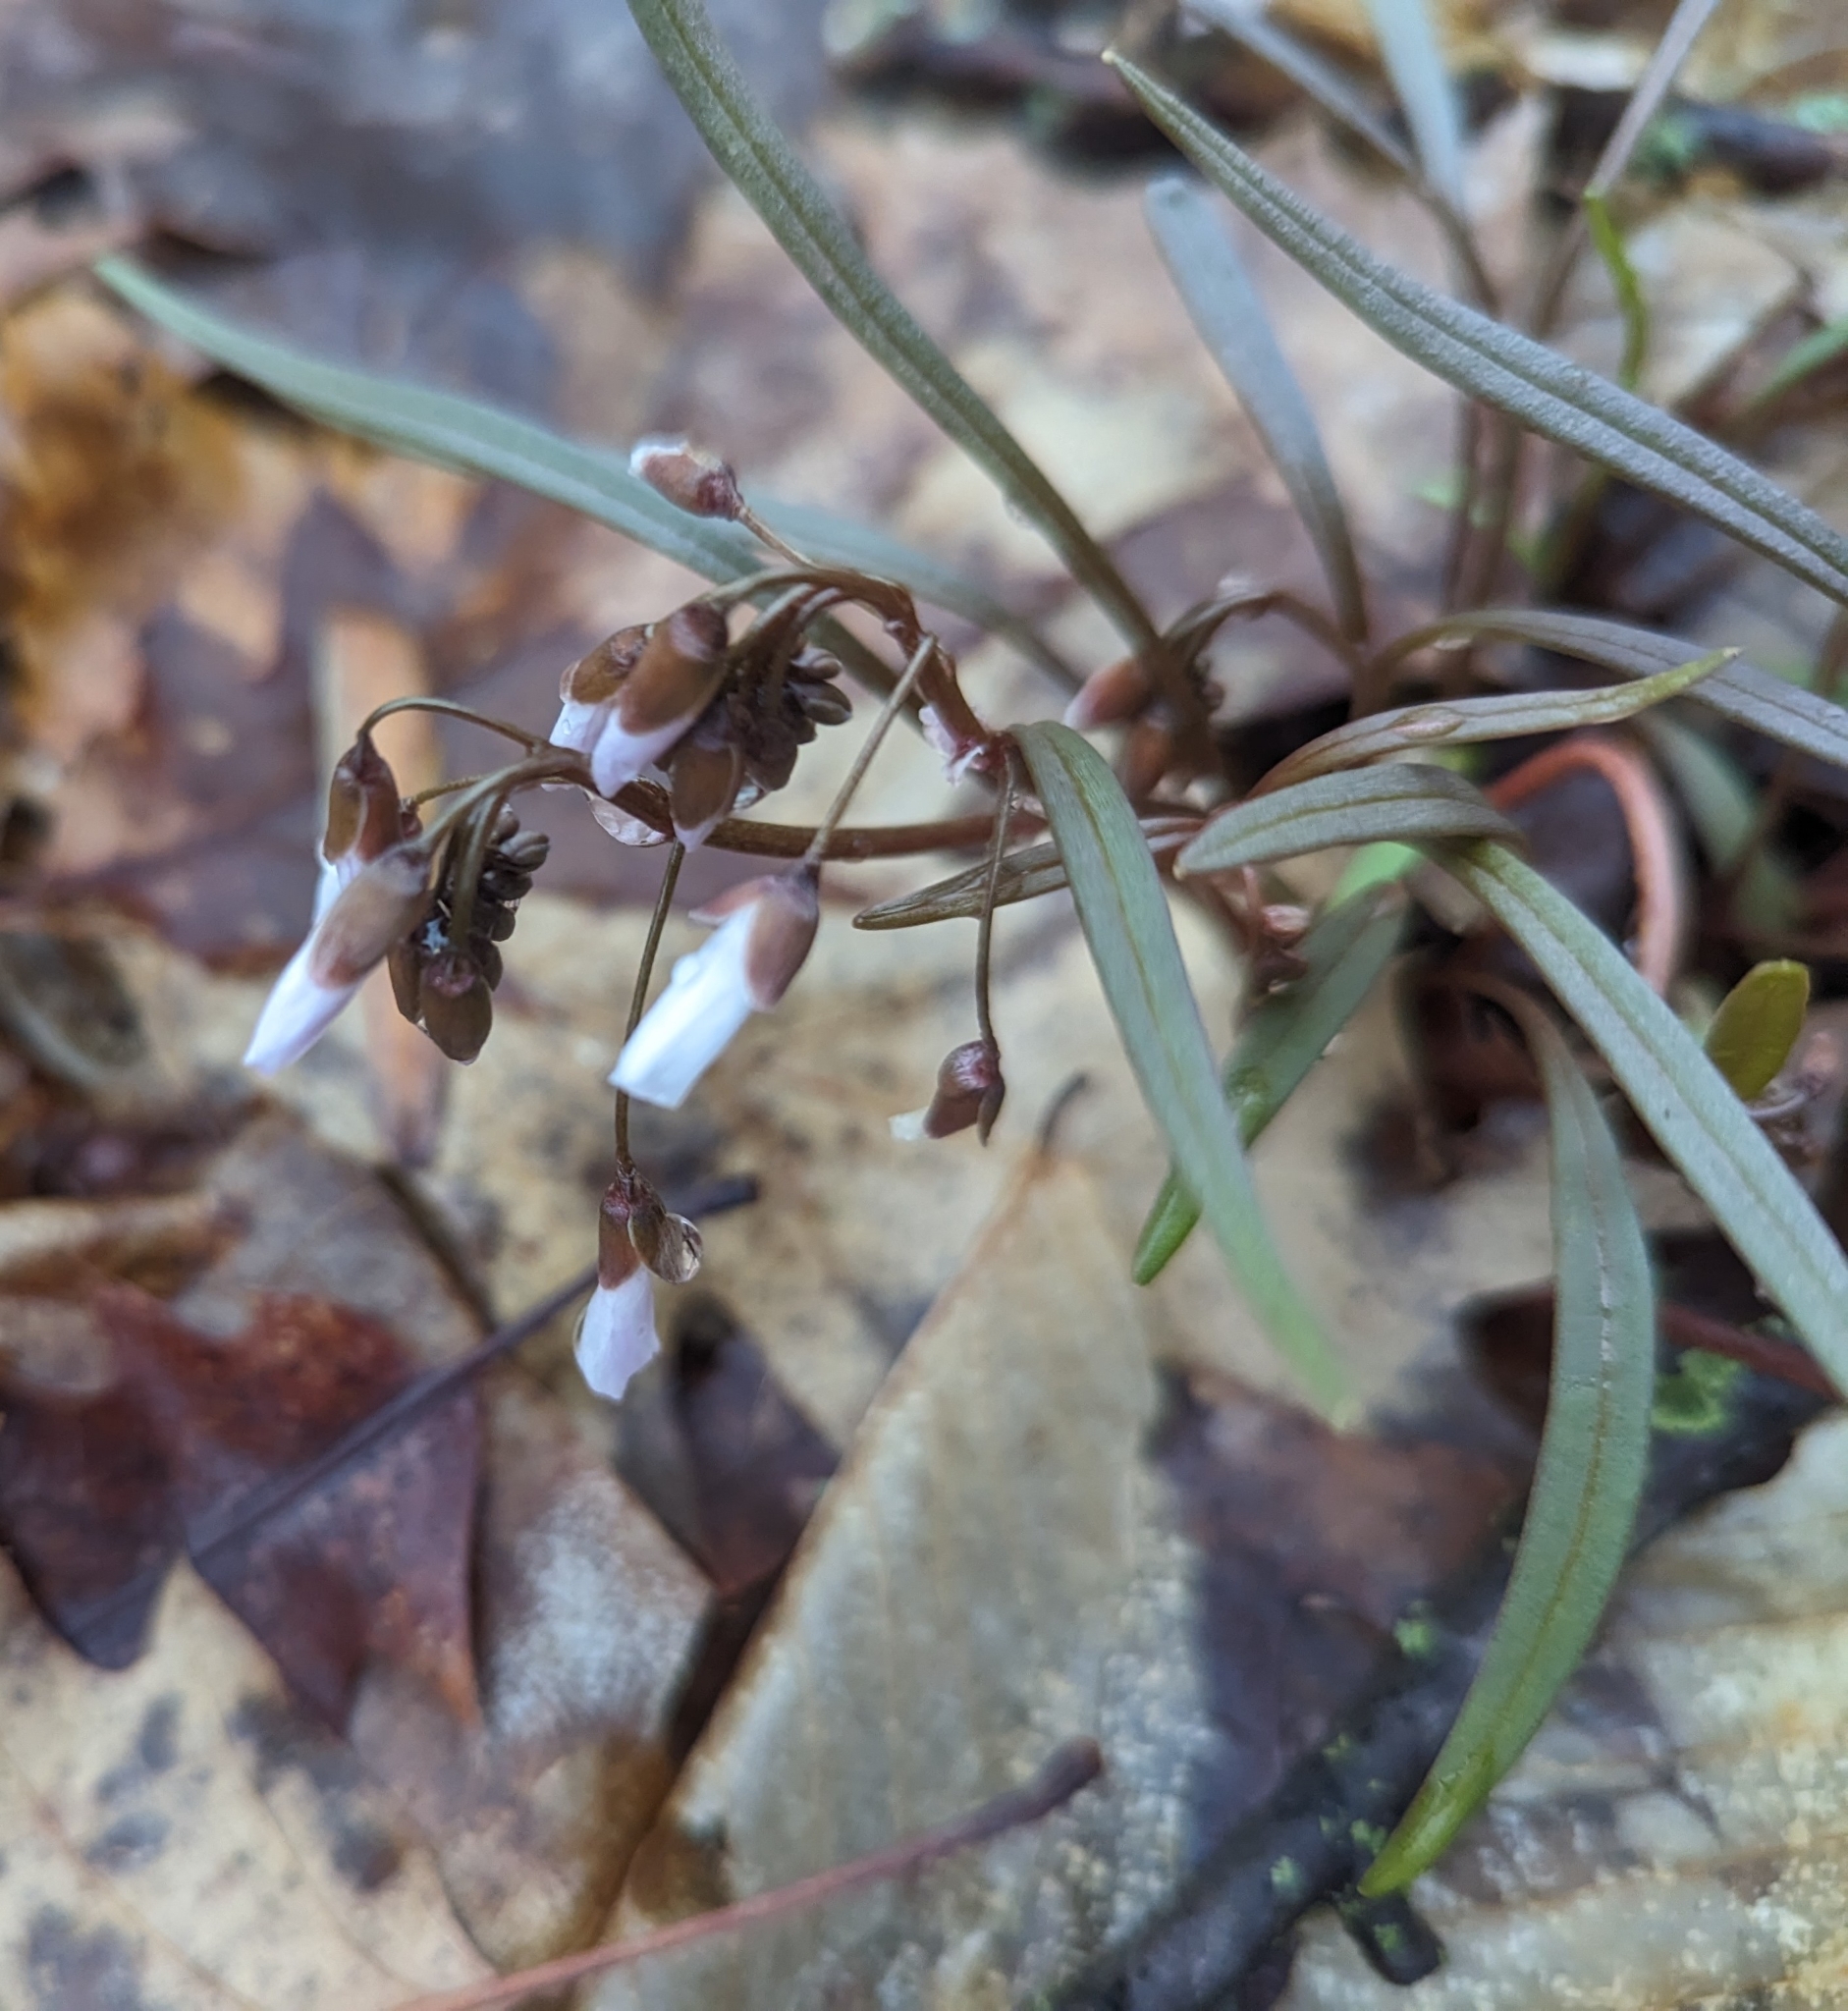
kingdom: Plantae
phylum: Tracheophyta
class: Magnoliopsida
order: Caryophyllales
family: Montiaceae
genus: Claytonia
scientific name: Claytonia virginica
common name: Virginia springbeauty
